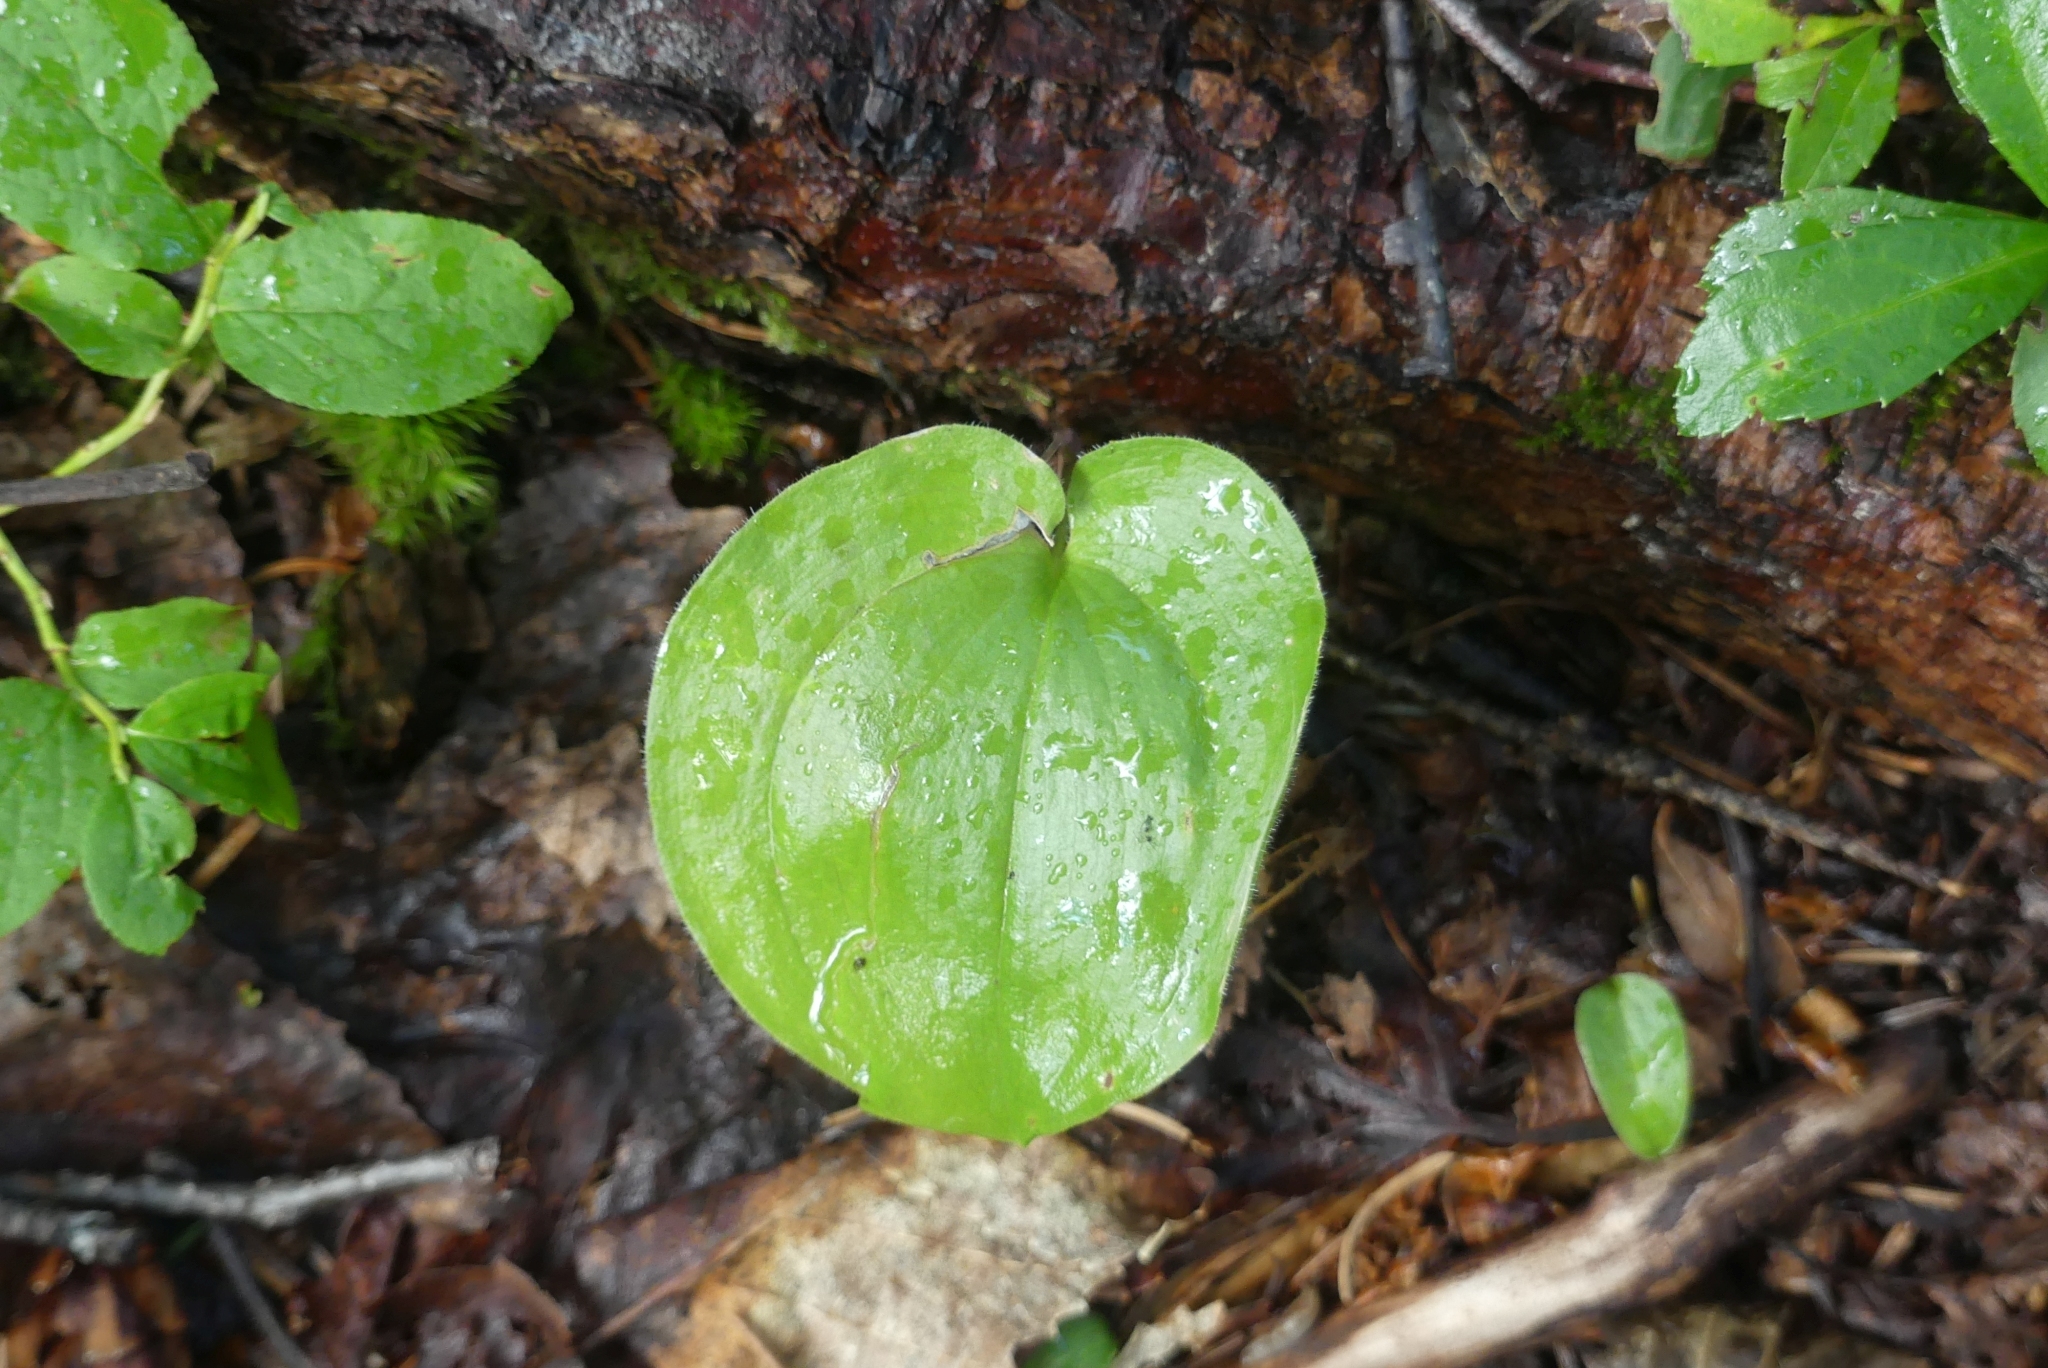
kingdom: Plantae
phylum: Tracheophyta
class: Liliopsida
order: Asparagales
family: Asparagaceae
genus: Maianthemum
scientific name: Maianthemum canadense
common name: False lily-of-the-valley
